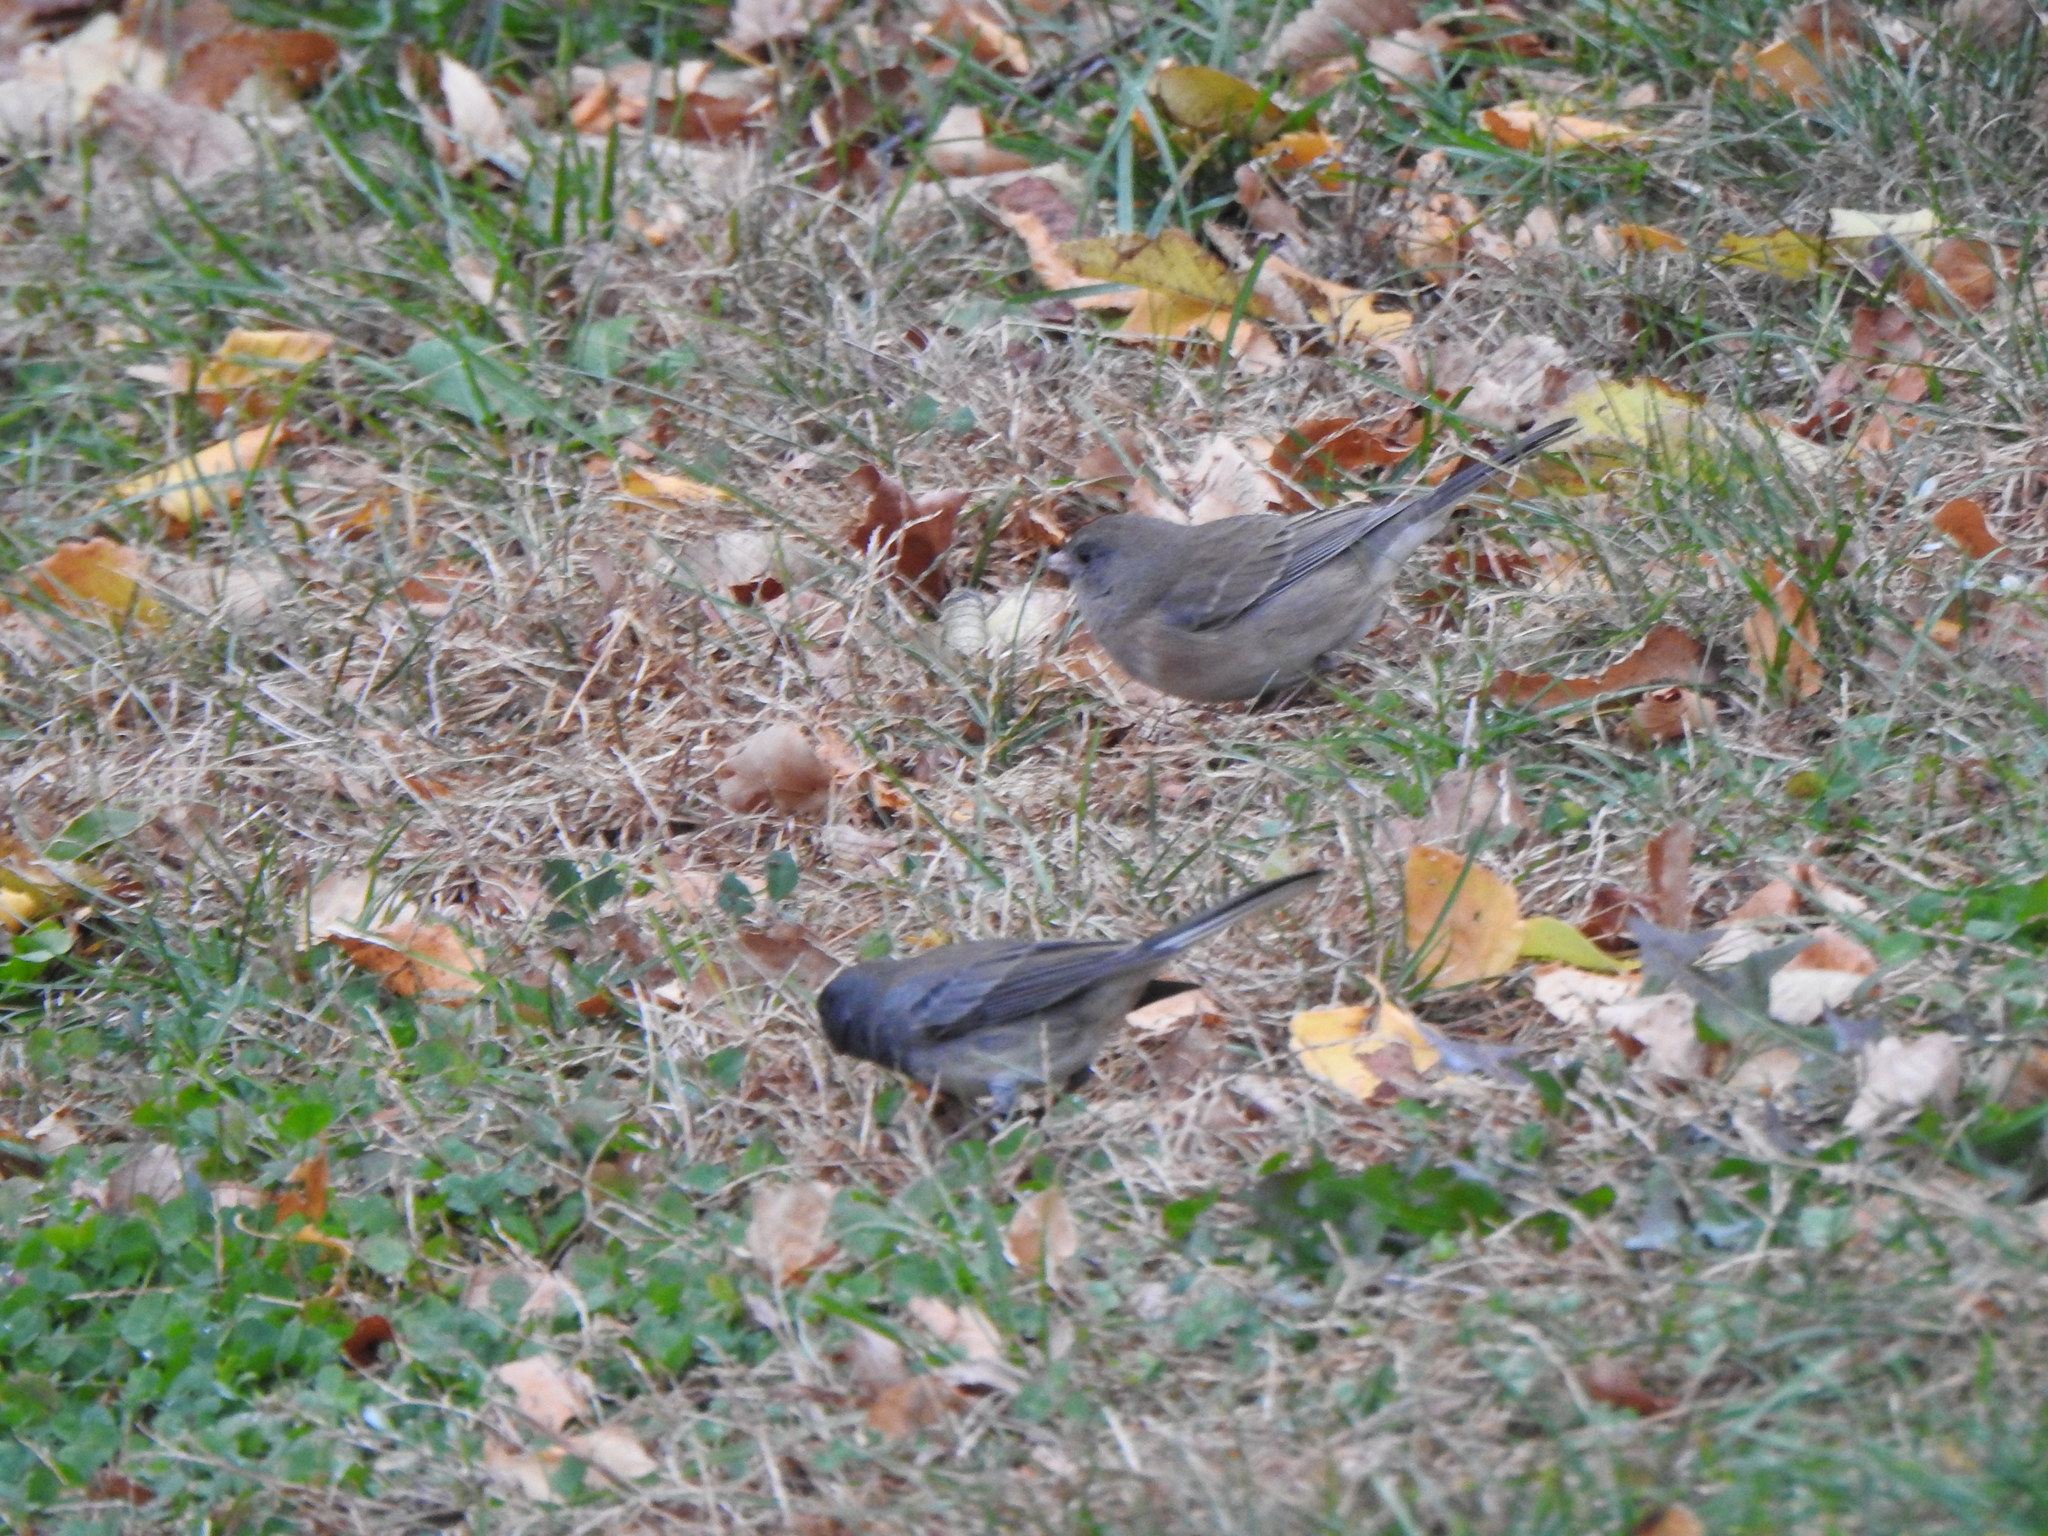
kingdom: Animalia
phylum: Chordata
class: Aves
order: Passeriformes
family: Passerellidae
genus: Junco
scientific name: Junco hyemalis
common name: Dark-eyed junco
